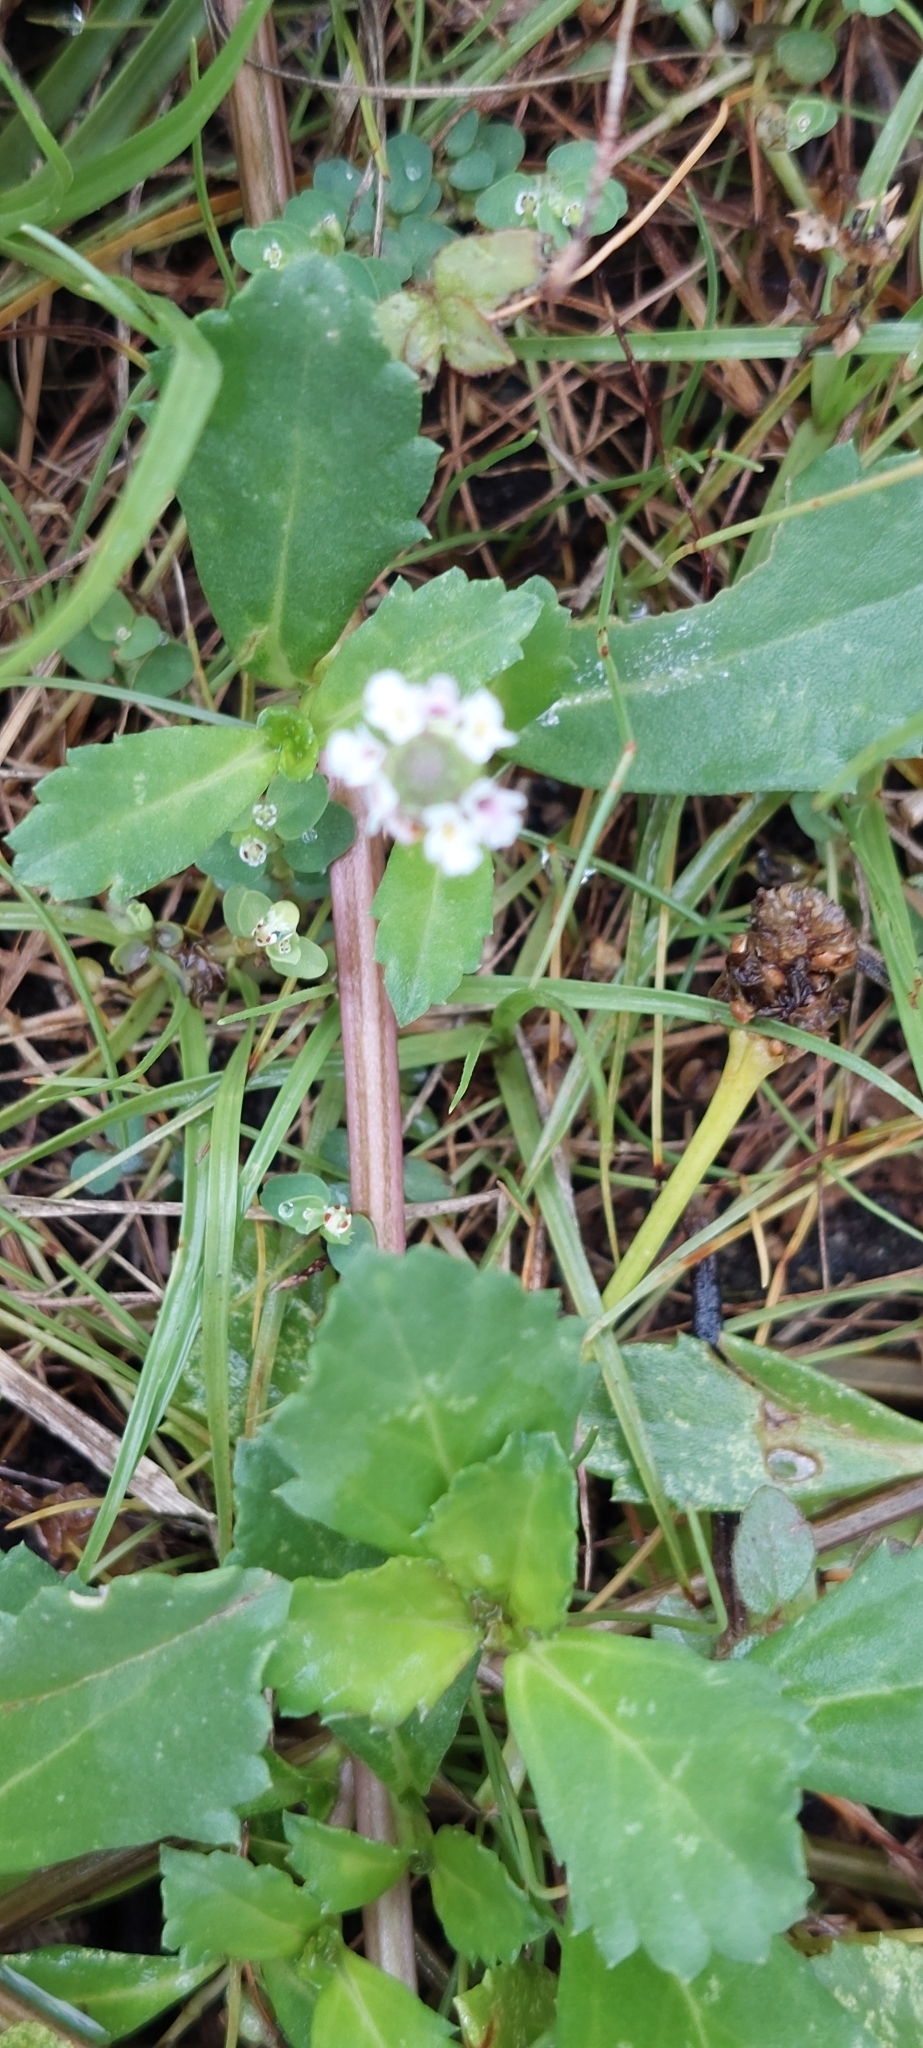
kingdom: Plantae
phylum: Tracheophyta
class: Magnoliopsida
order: Lamiales
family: Verbenaceae
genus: Phyla
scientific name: Phyla nodiflora
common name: Frogfruit
